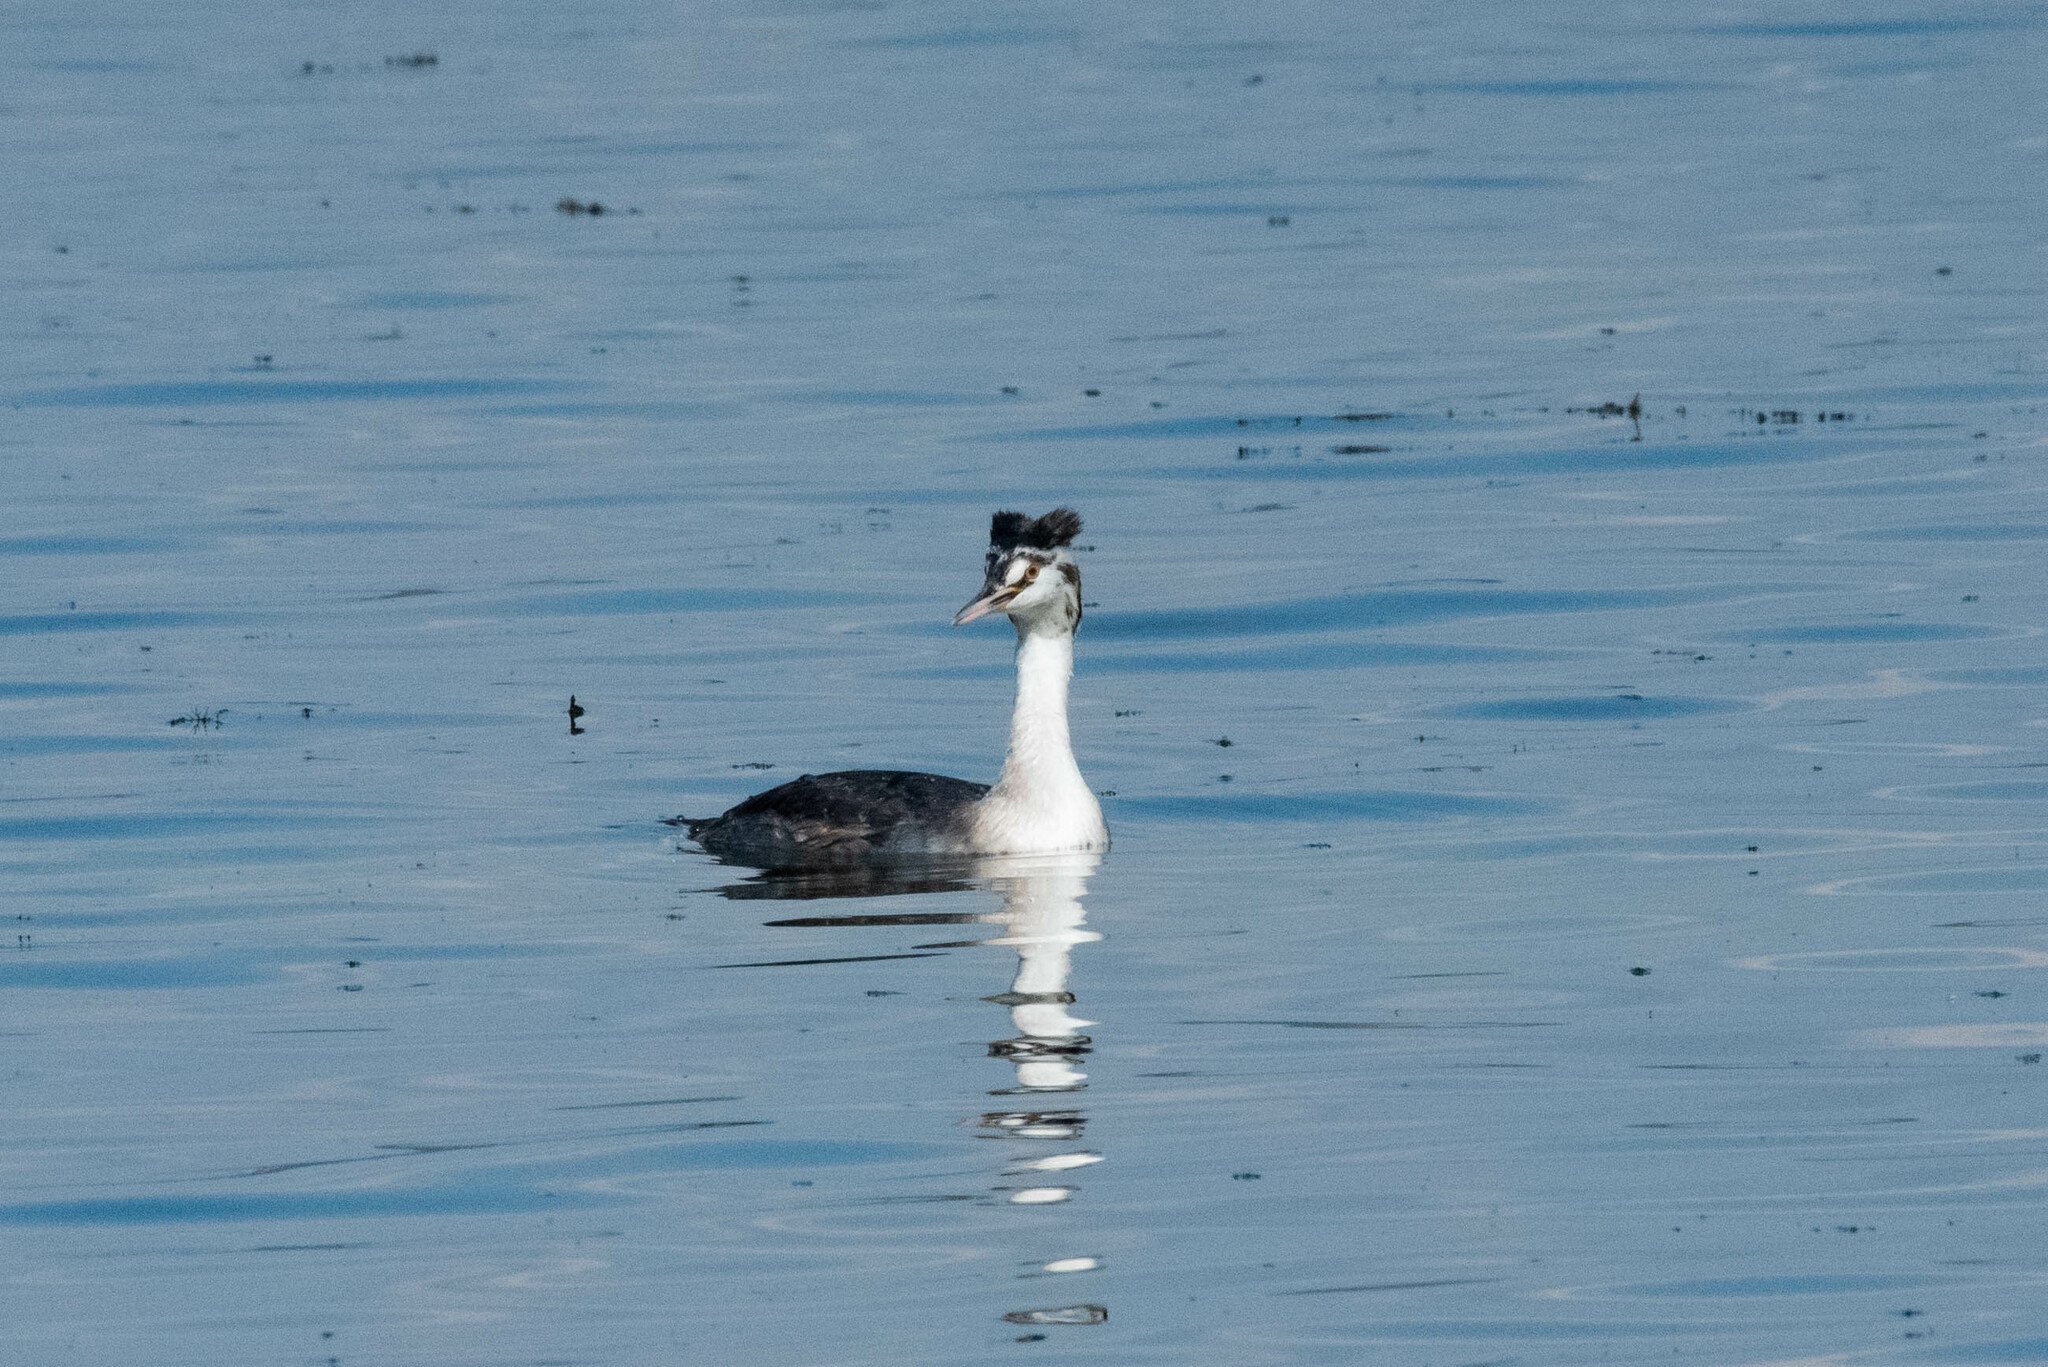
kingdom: Animalia
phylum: Chordata
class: Aves
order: Podicipediformes
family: Podicipedidae
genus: Podiceps
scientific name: Podiceps cristatus
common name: Great crested grebe
